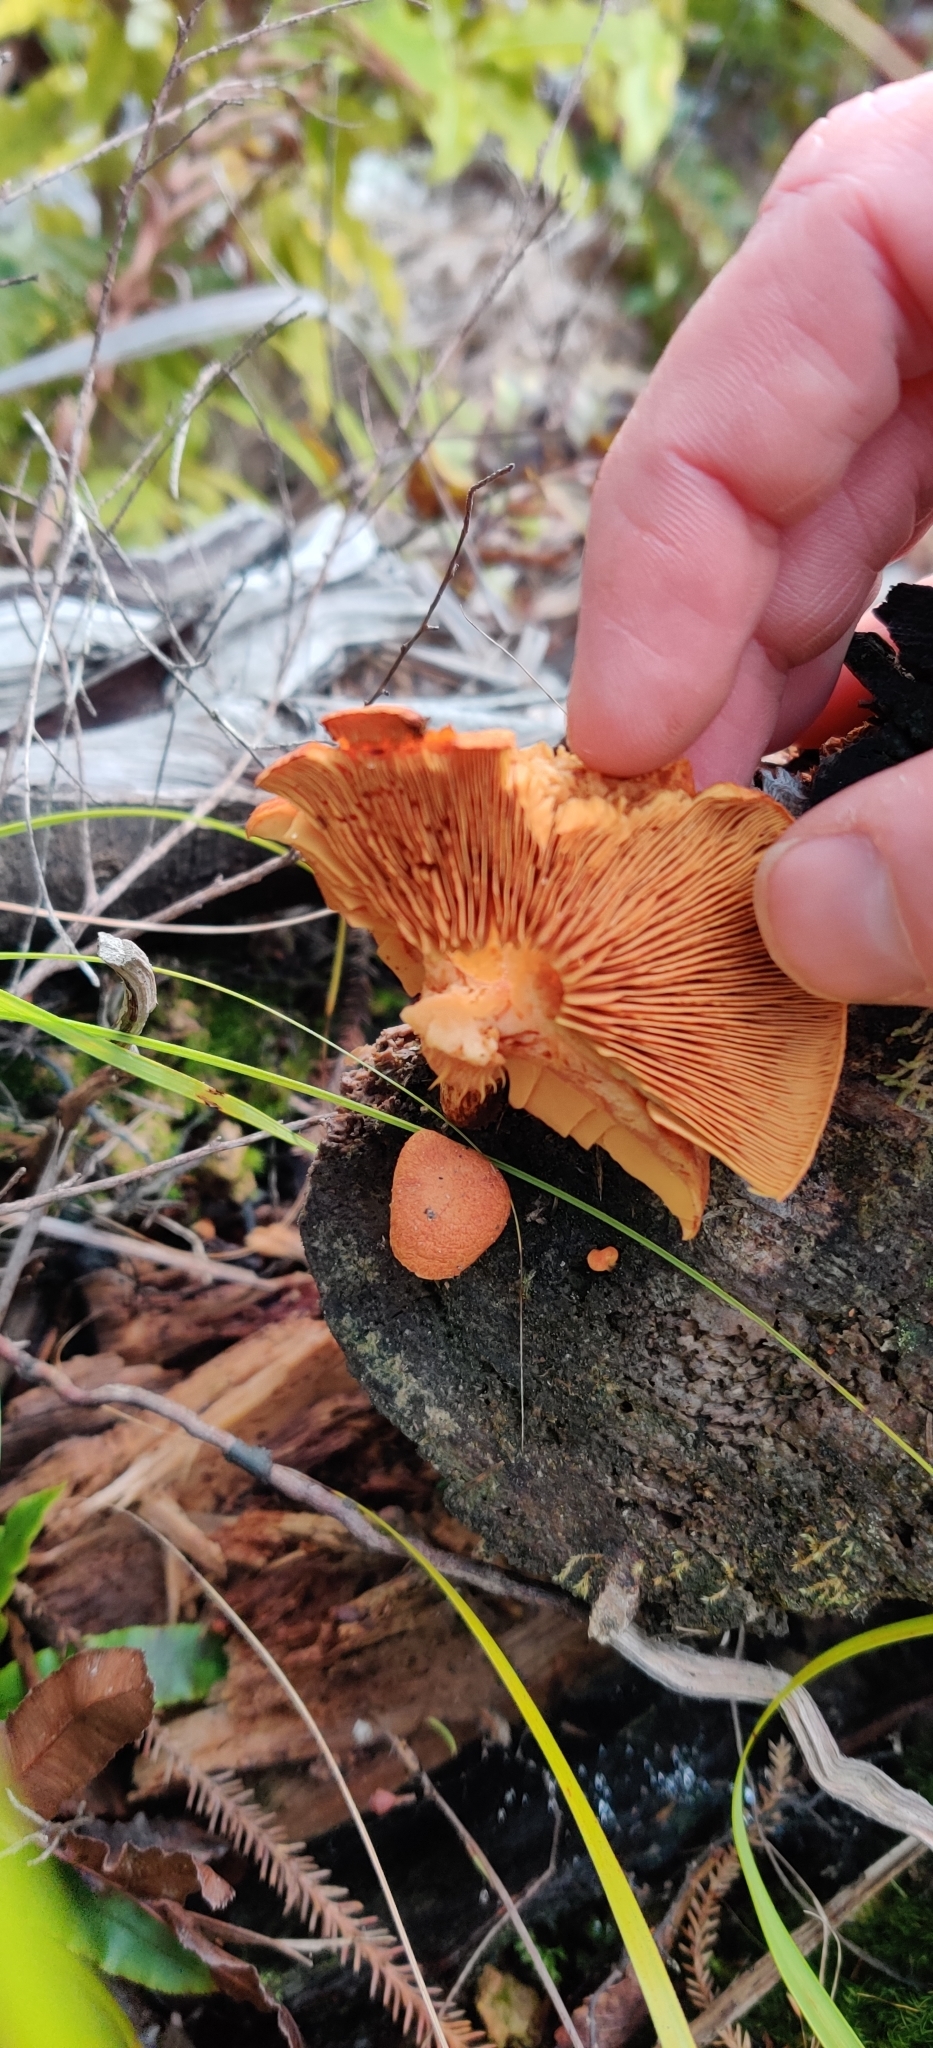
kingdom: Fungi
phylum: Basidiomycota
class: Agaricomycetes
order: Polyporales
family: Polyporaceae
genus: Trametes
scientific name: Trametes coccinea
